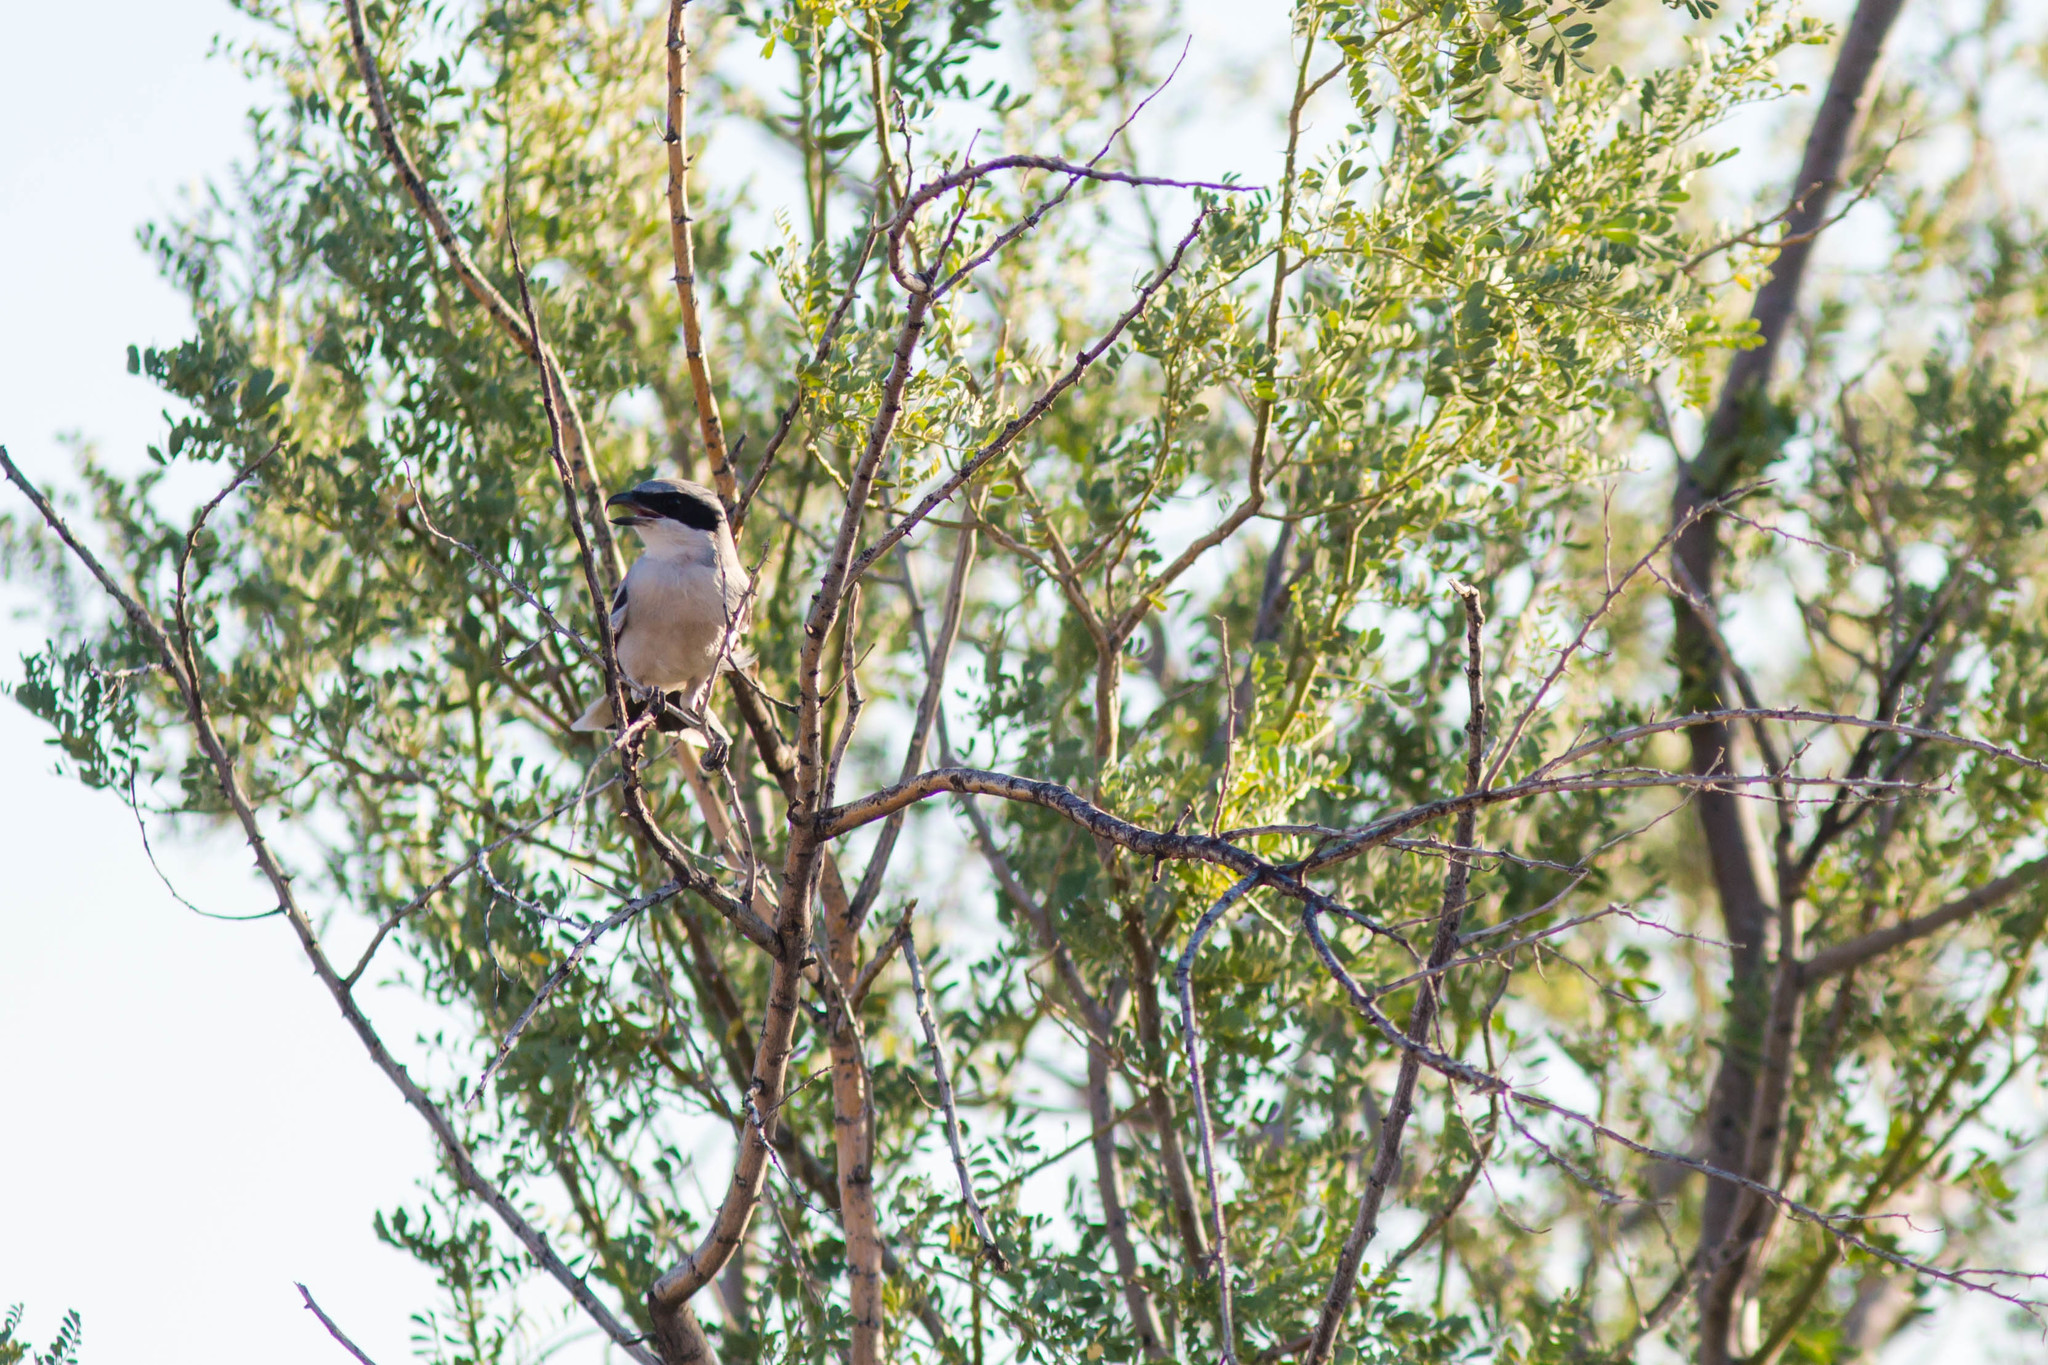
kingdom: Animalia
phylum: Chordata
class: Aves
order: Passeriformes
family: Laniidae
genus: Lanius
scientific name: Lanius ludovicianus
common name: Loggerhead shrike
